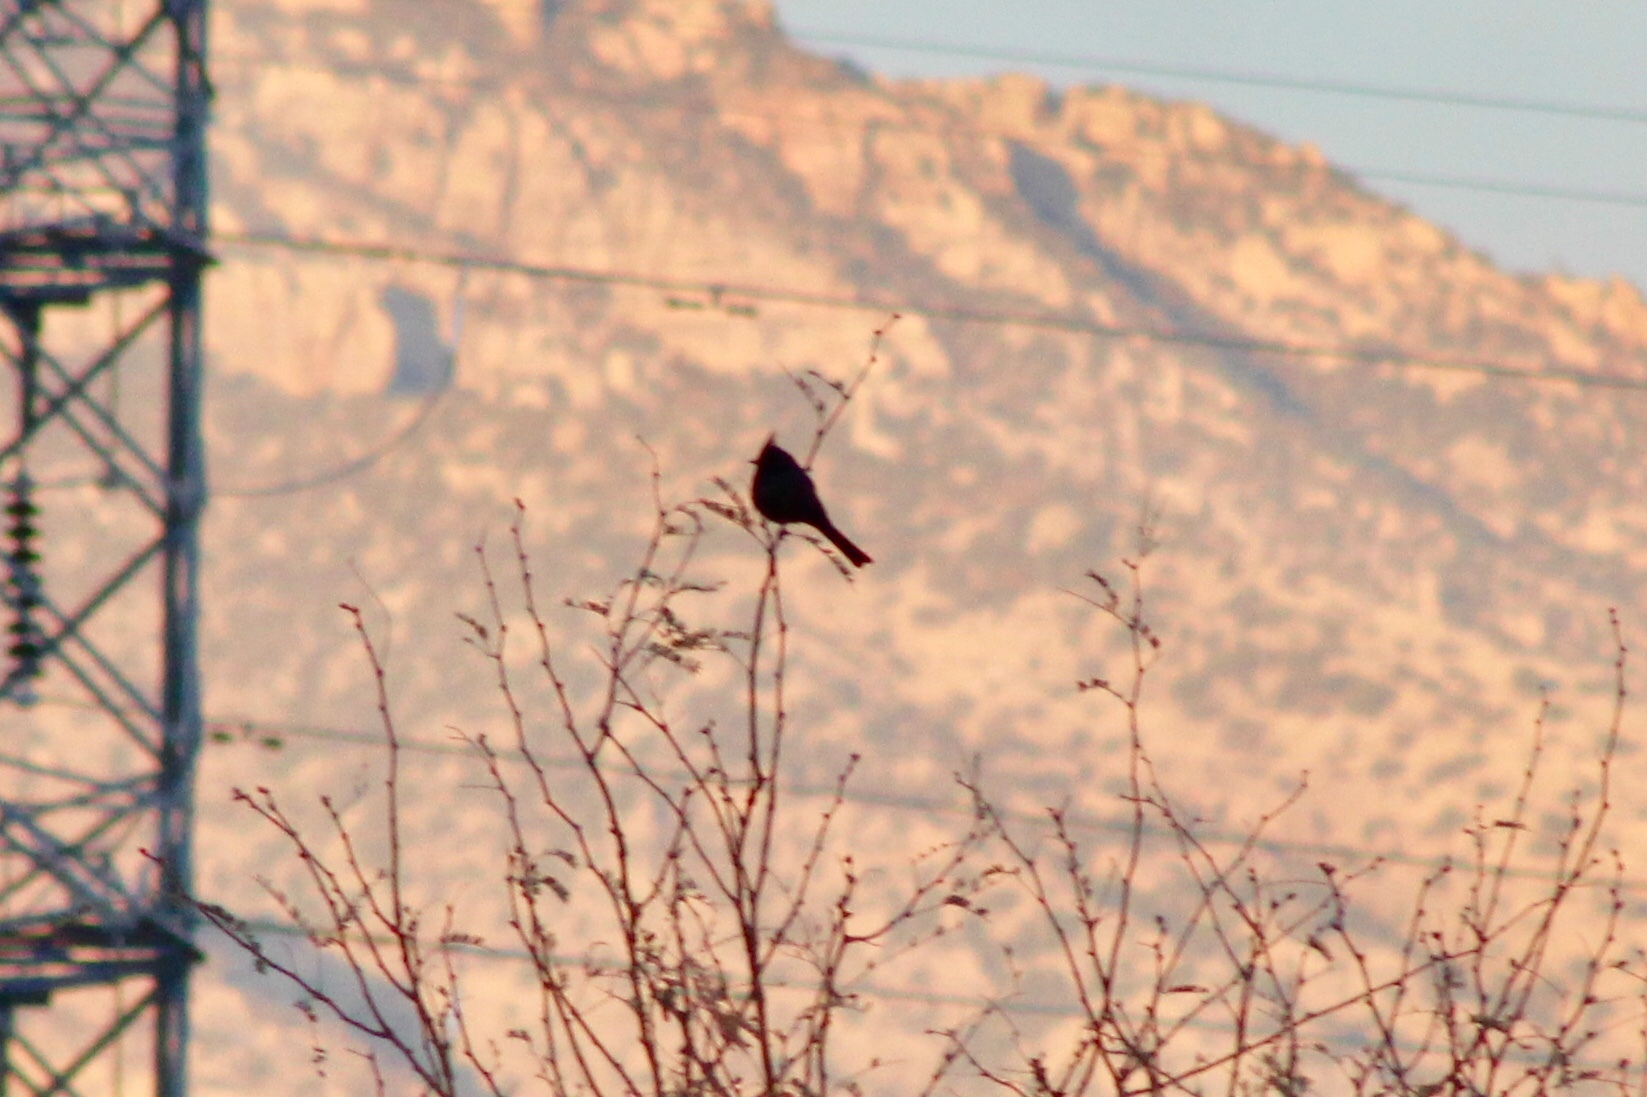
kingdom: Animalia
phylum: Chordata
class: Aves
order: Passeriformes
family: Ptilogonatidae
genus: Phainopepla
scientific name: Phainopepla nitens
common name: Phainopepla
